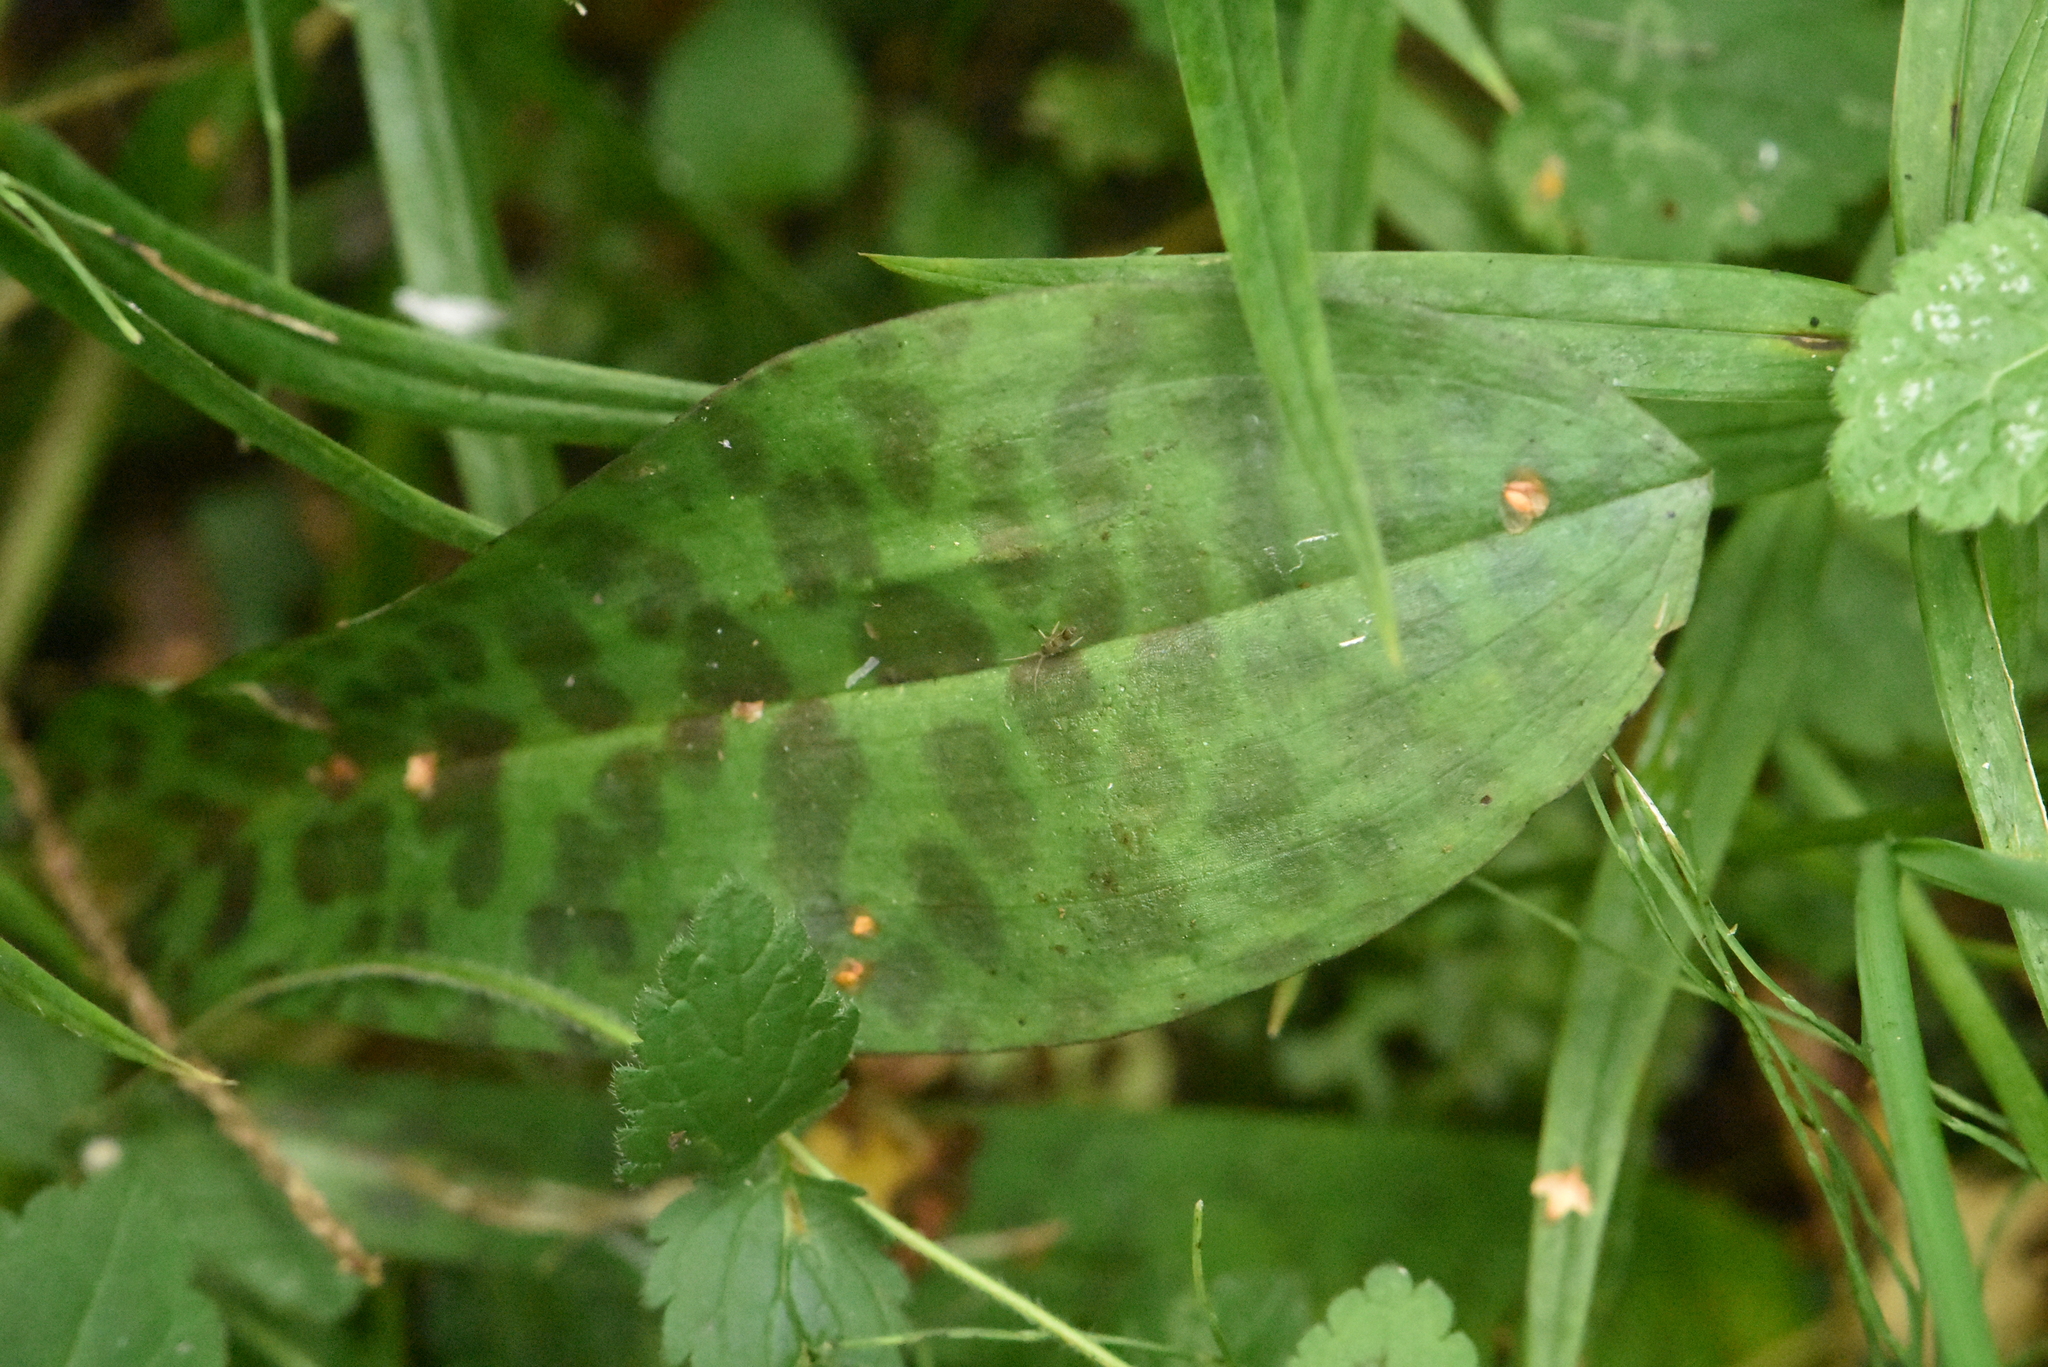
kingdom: Plantae
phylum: Tracheophyta
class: Liliopsida
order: Asparagales
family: Orchidaceae
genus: Dactylorhiza
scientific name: Dactylorhiza maculata
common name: Heath spotted-orchid
